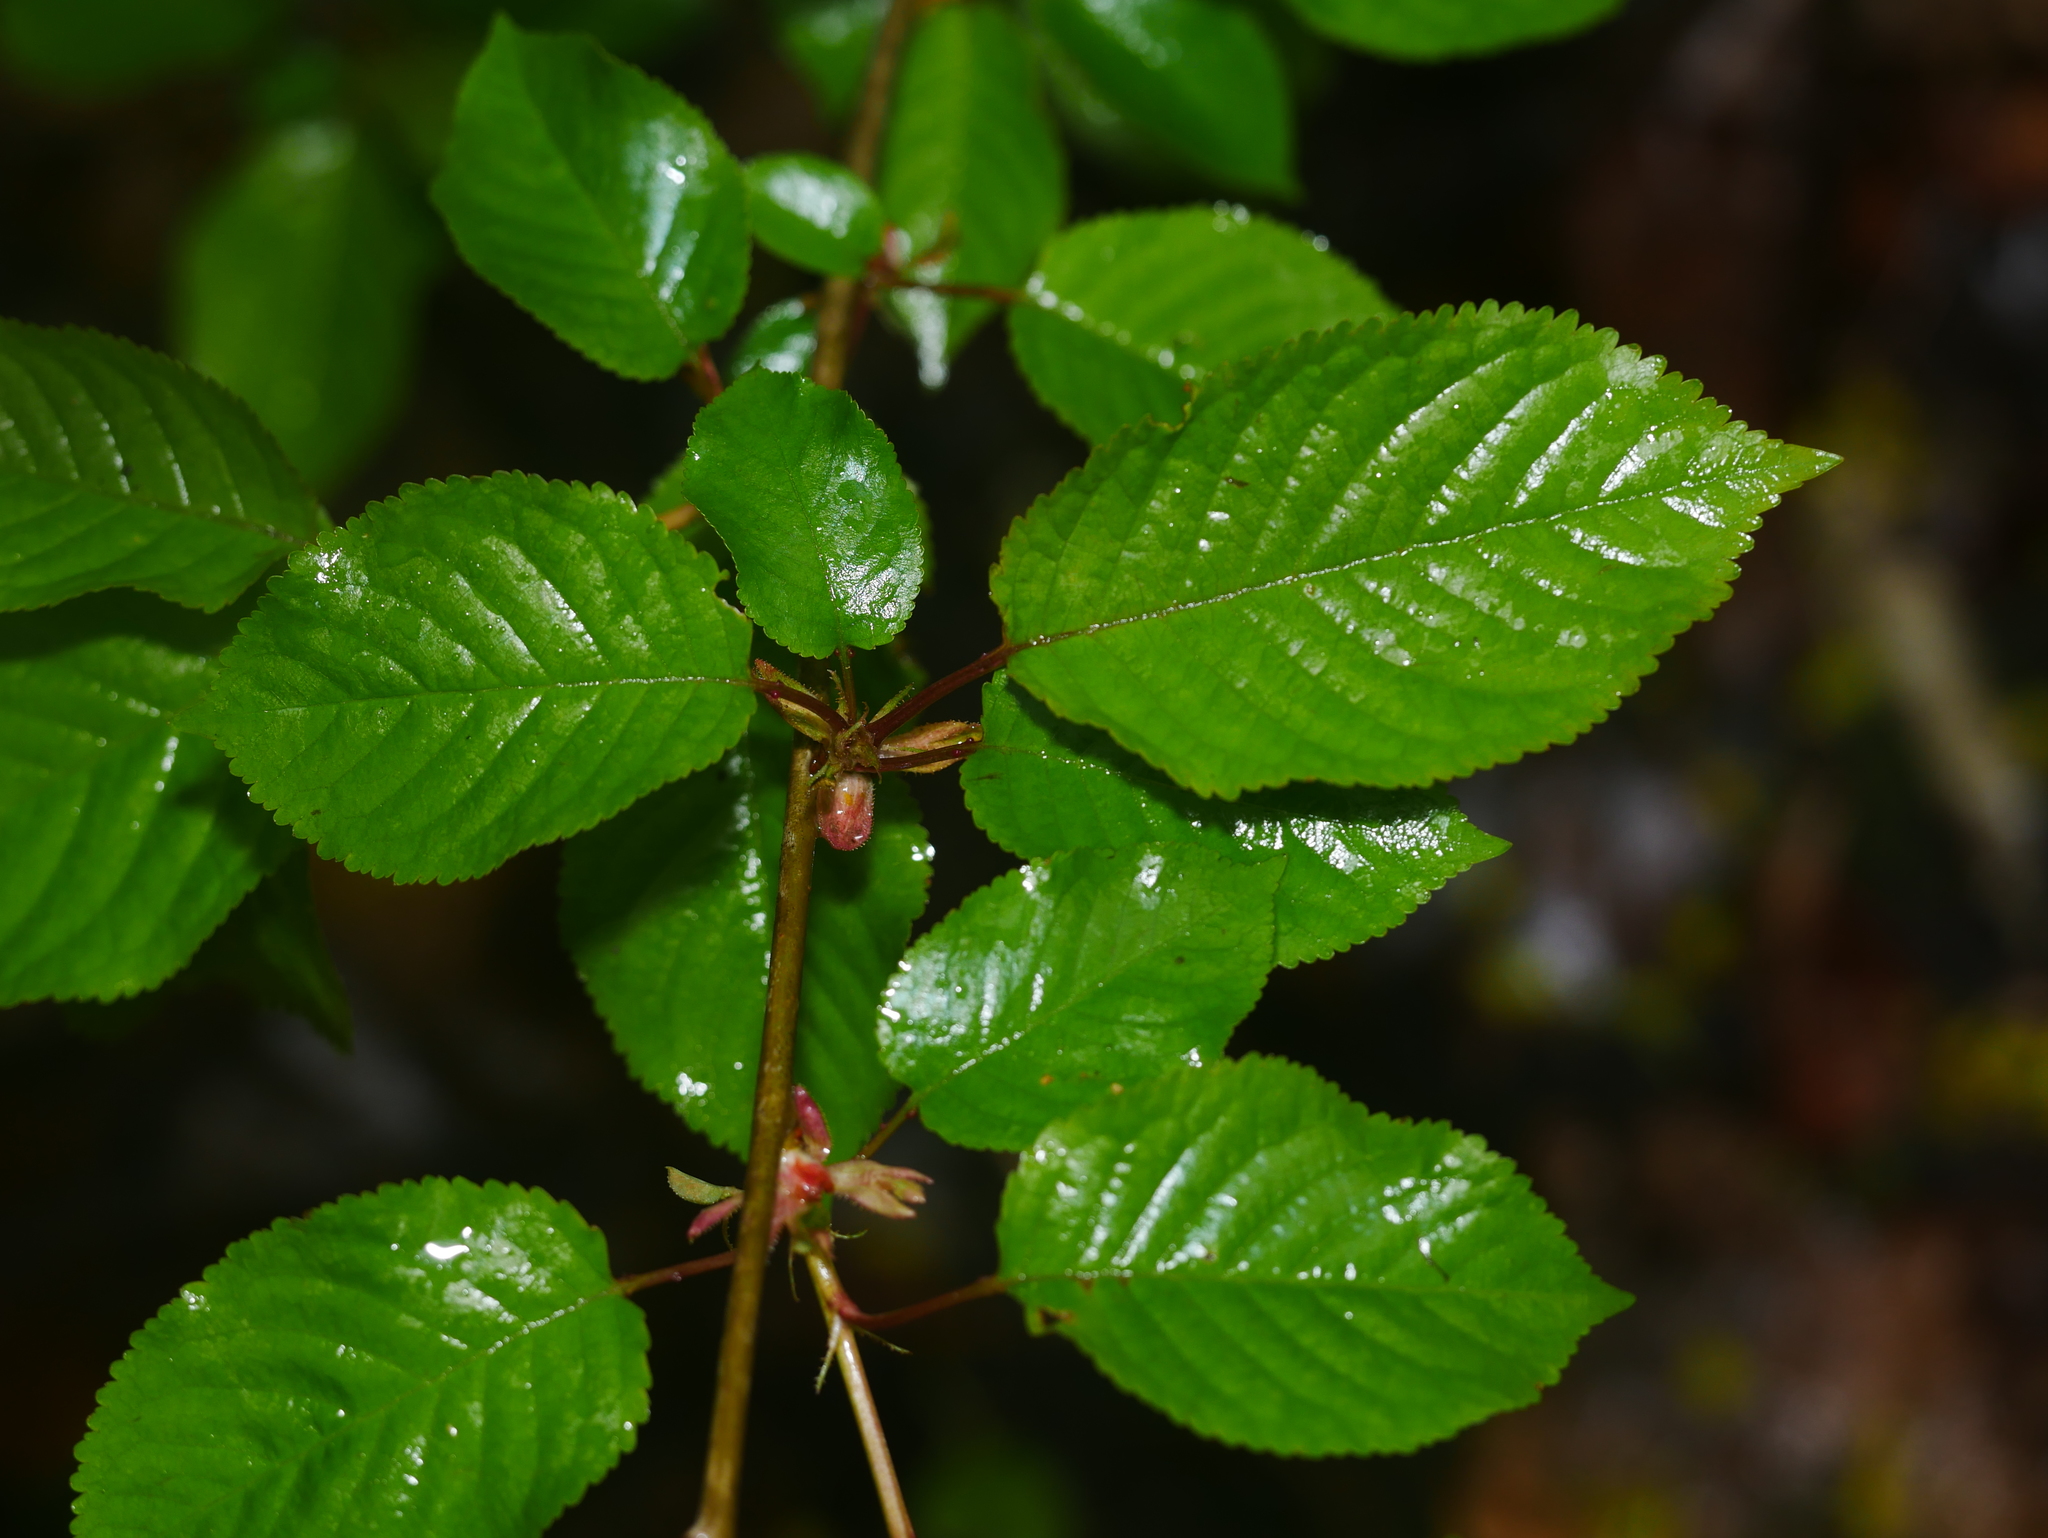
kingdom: Plantae
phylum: Tracheophyta
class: Magnoliopsida
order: Rosales
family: Rosaceae
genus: Prunus
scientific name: Prunus avium
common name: Sweet cherry
